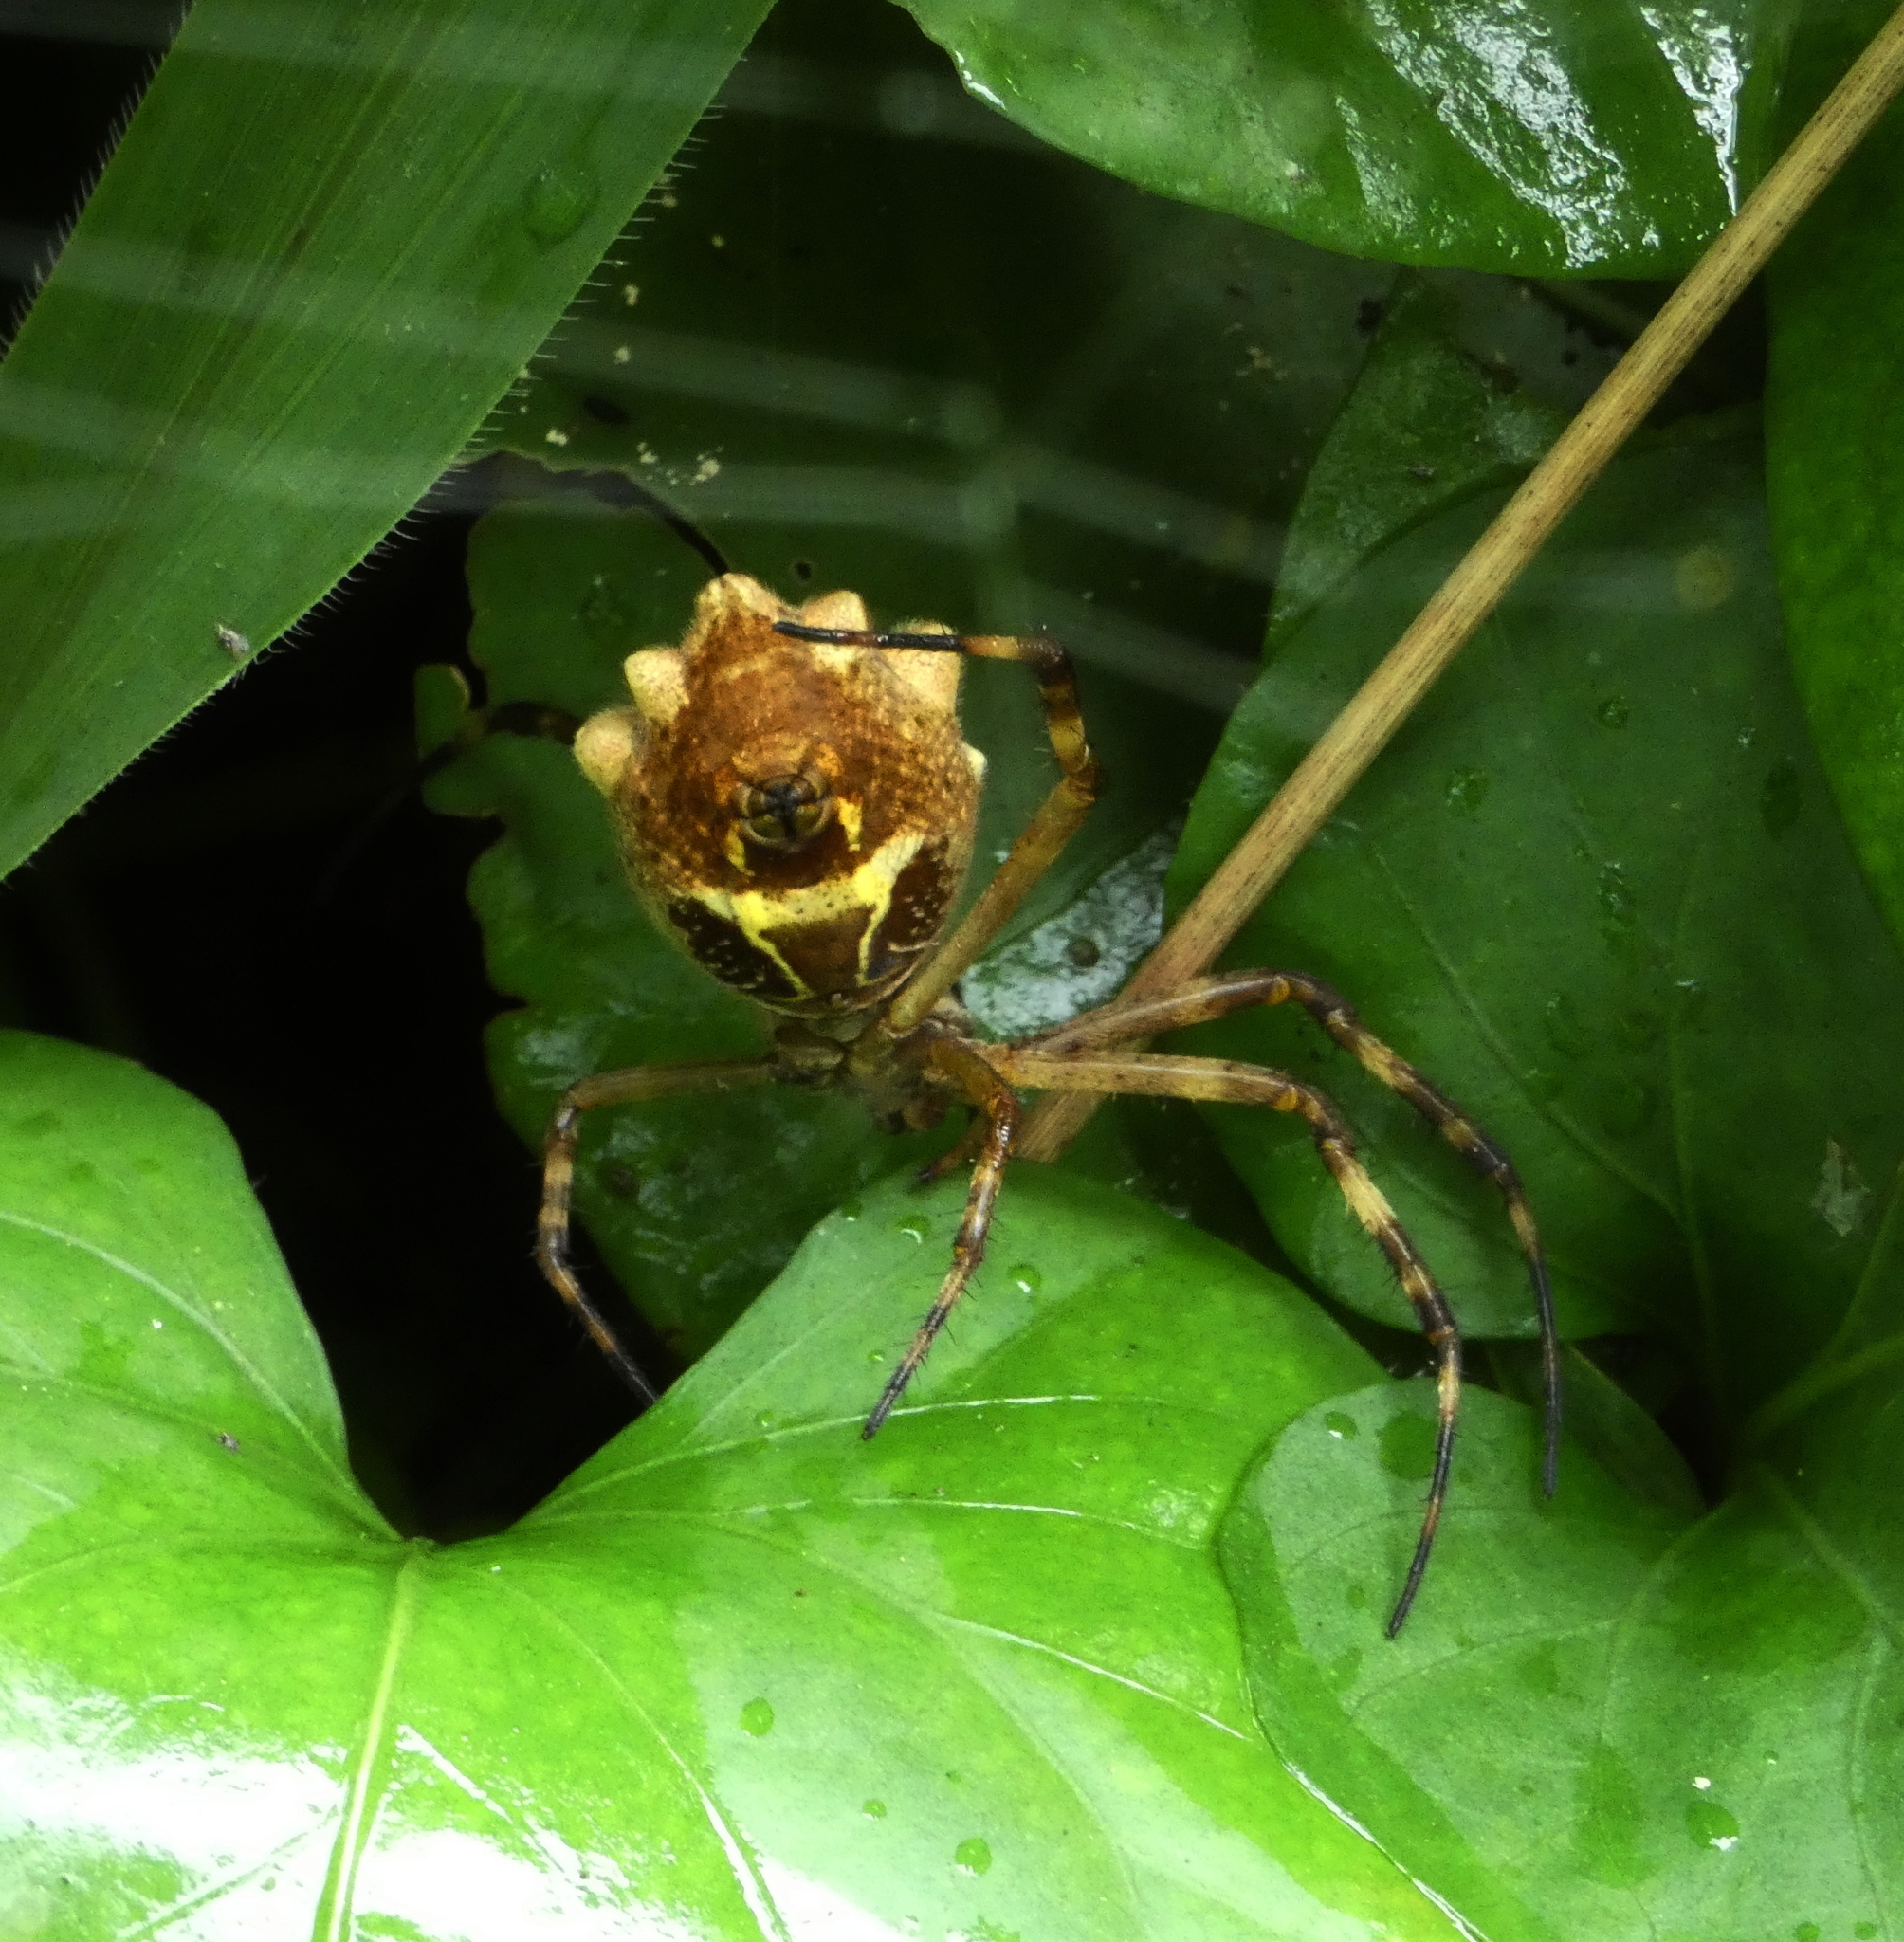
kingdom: Animalia
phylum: Arthropoda
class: Arachnida
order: Araneae
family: Araneidae
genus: Argiope
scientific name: Argiope argentata
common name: Orb weavers
